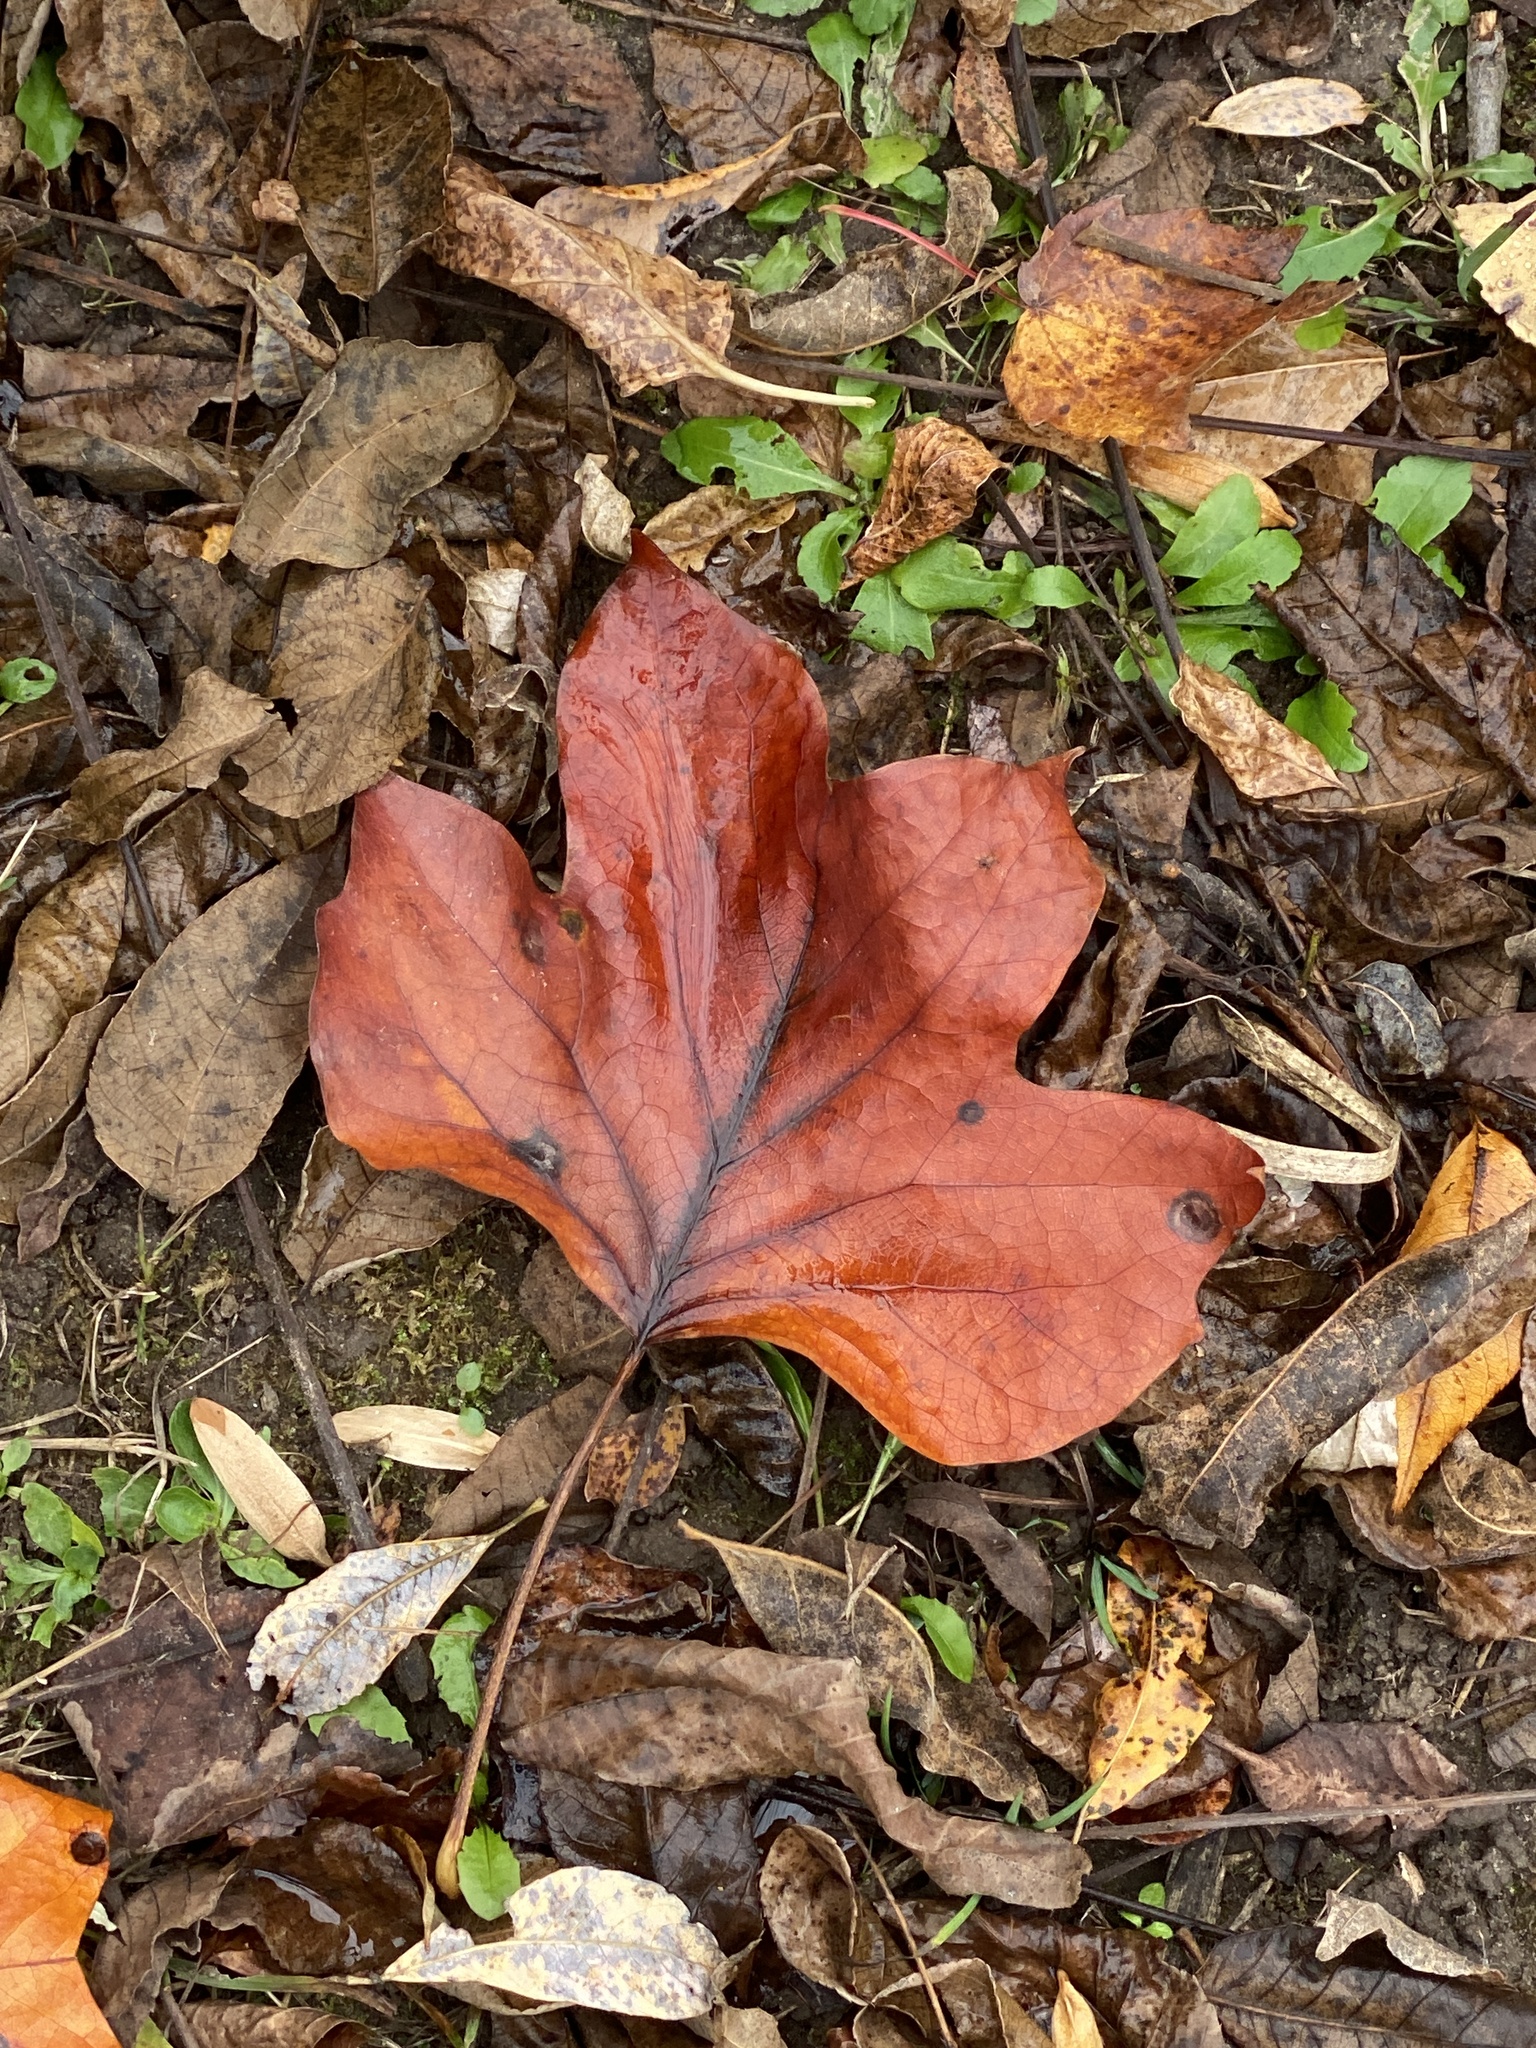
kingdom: Plantae
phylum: Tracheophyta
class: Magnoliopsida
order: Magnoliales
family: Magnoliaceae
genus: Liriodendron
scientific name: Liriodendron tulipifera
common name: Tulip tree
